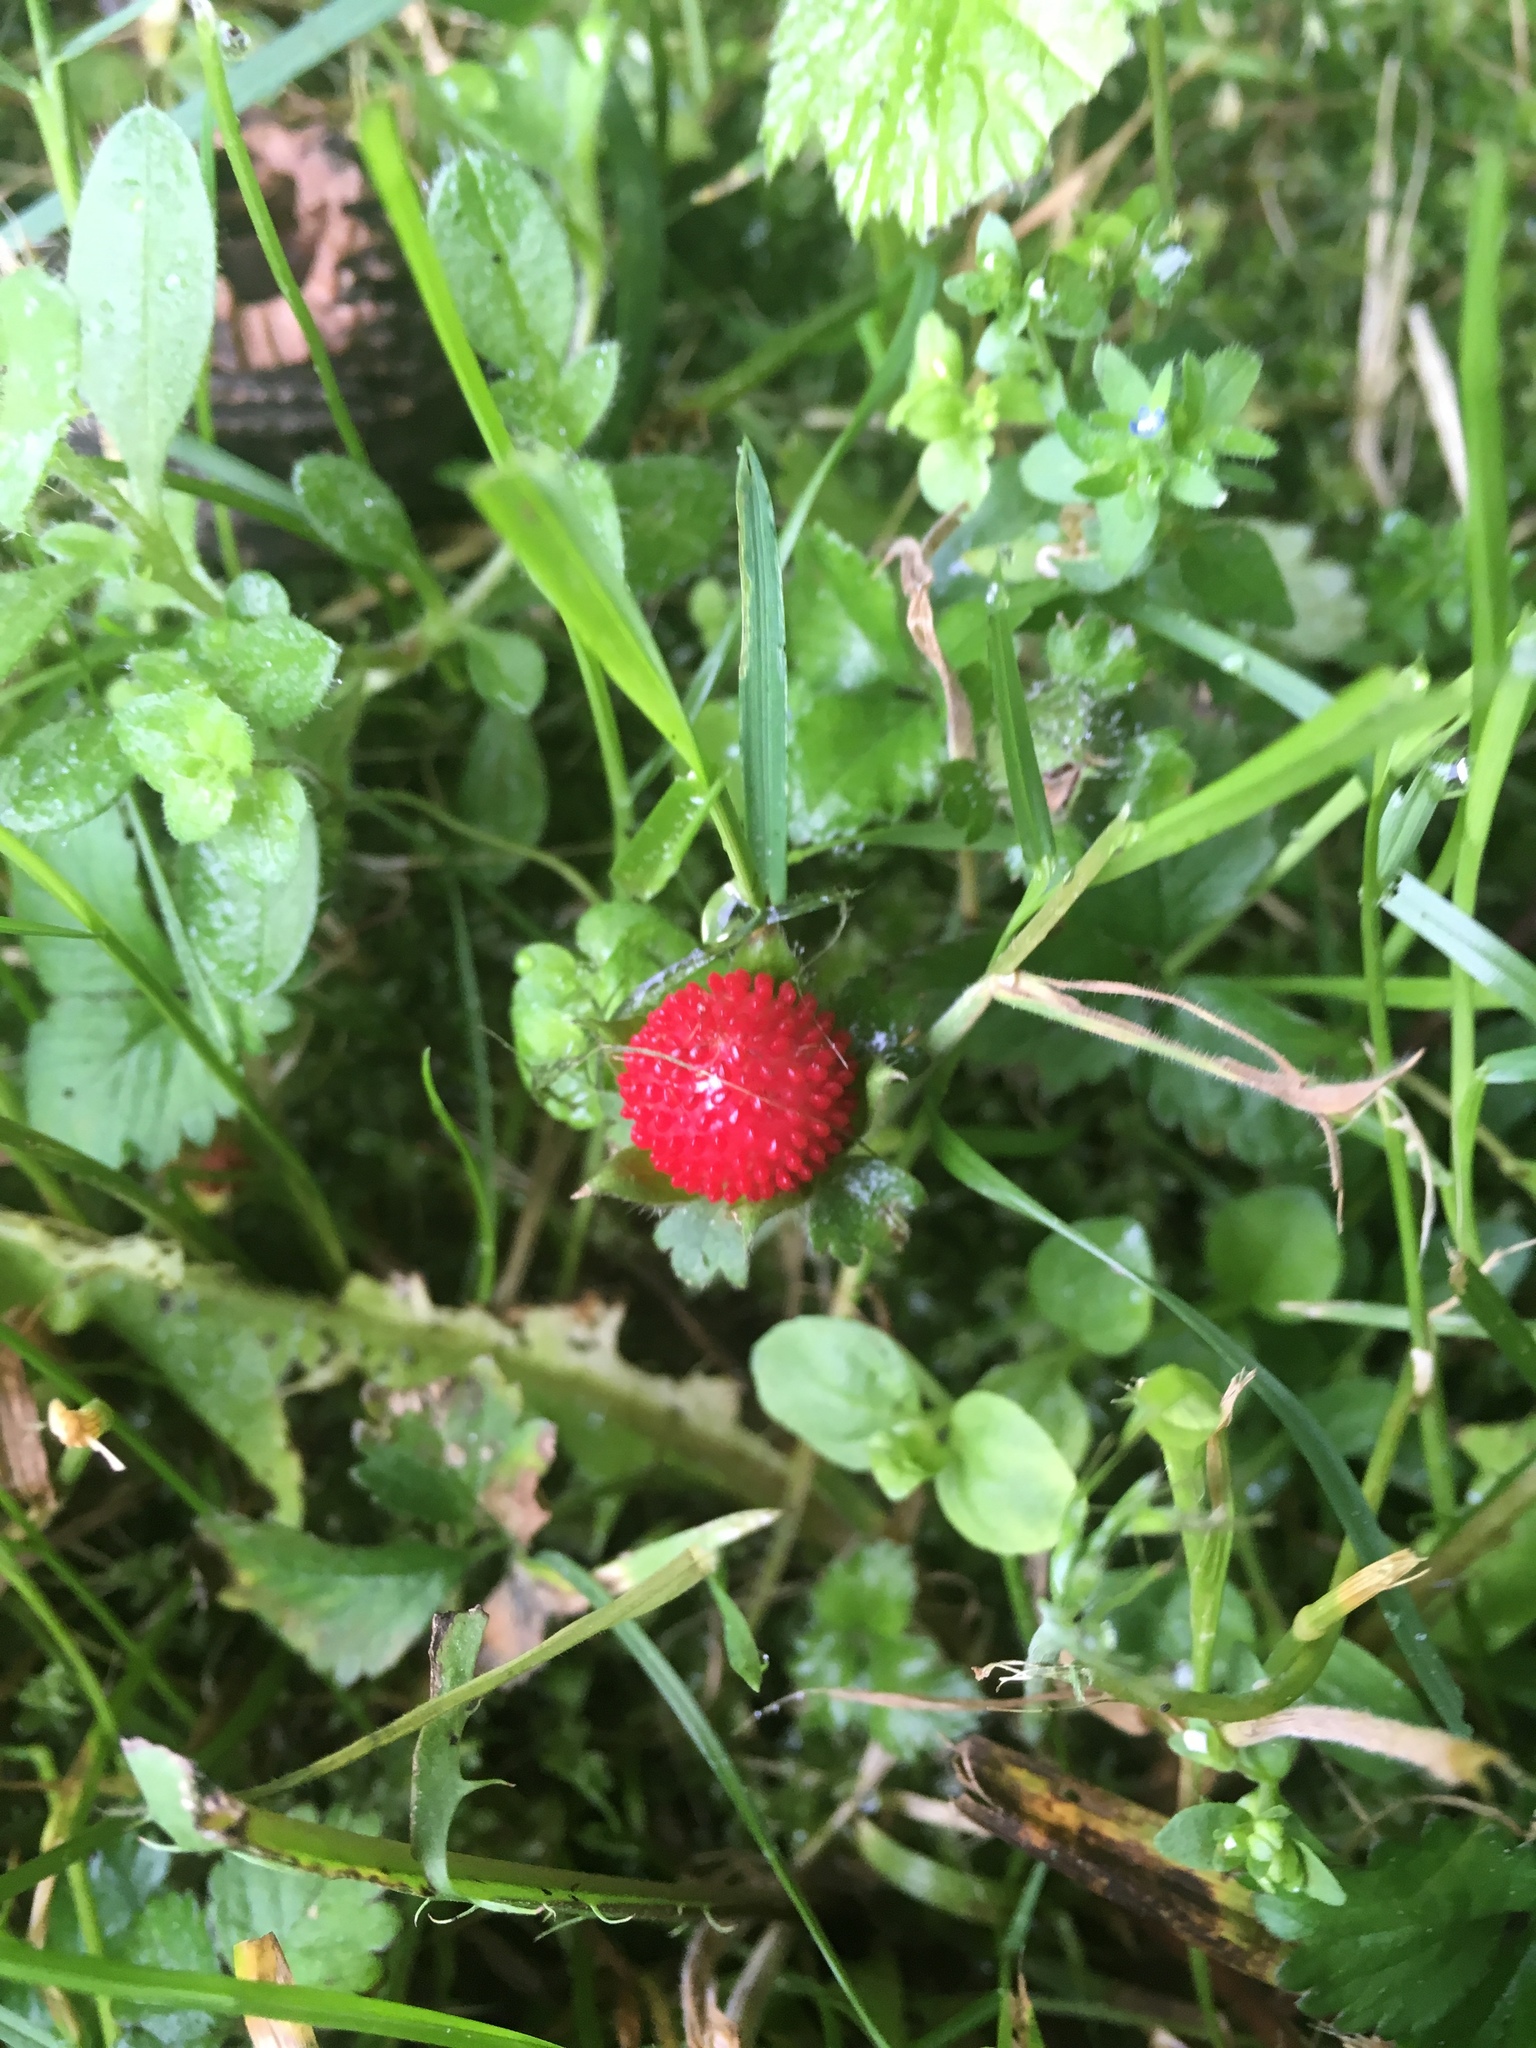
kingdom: Plantae
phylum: Tracheophyta
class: Magnoliopsida
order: Rosales
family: Rosaceae
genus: Potentilla
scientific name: Potentilla indica
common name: Yellow-flowered strawberry
